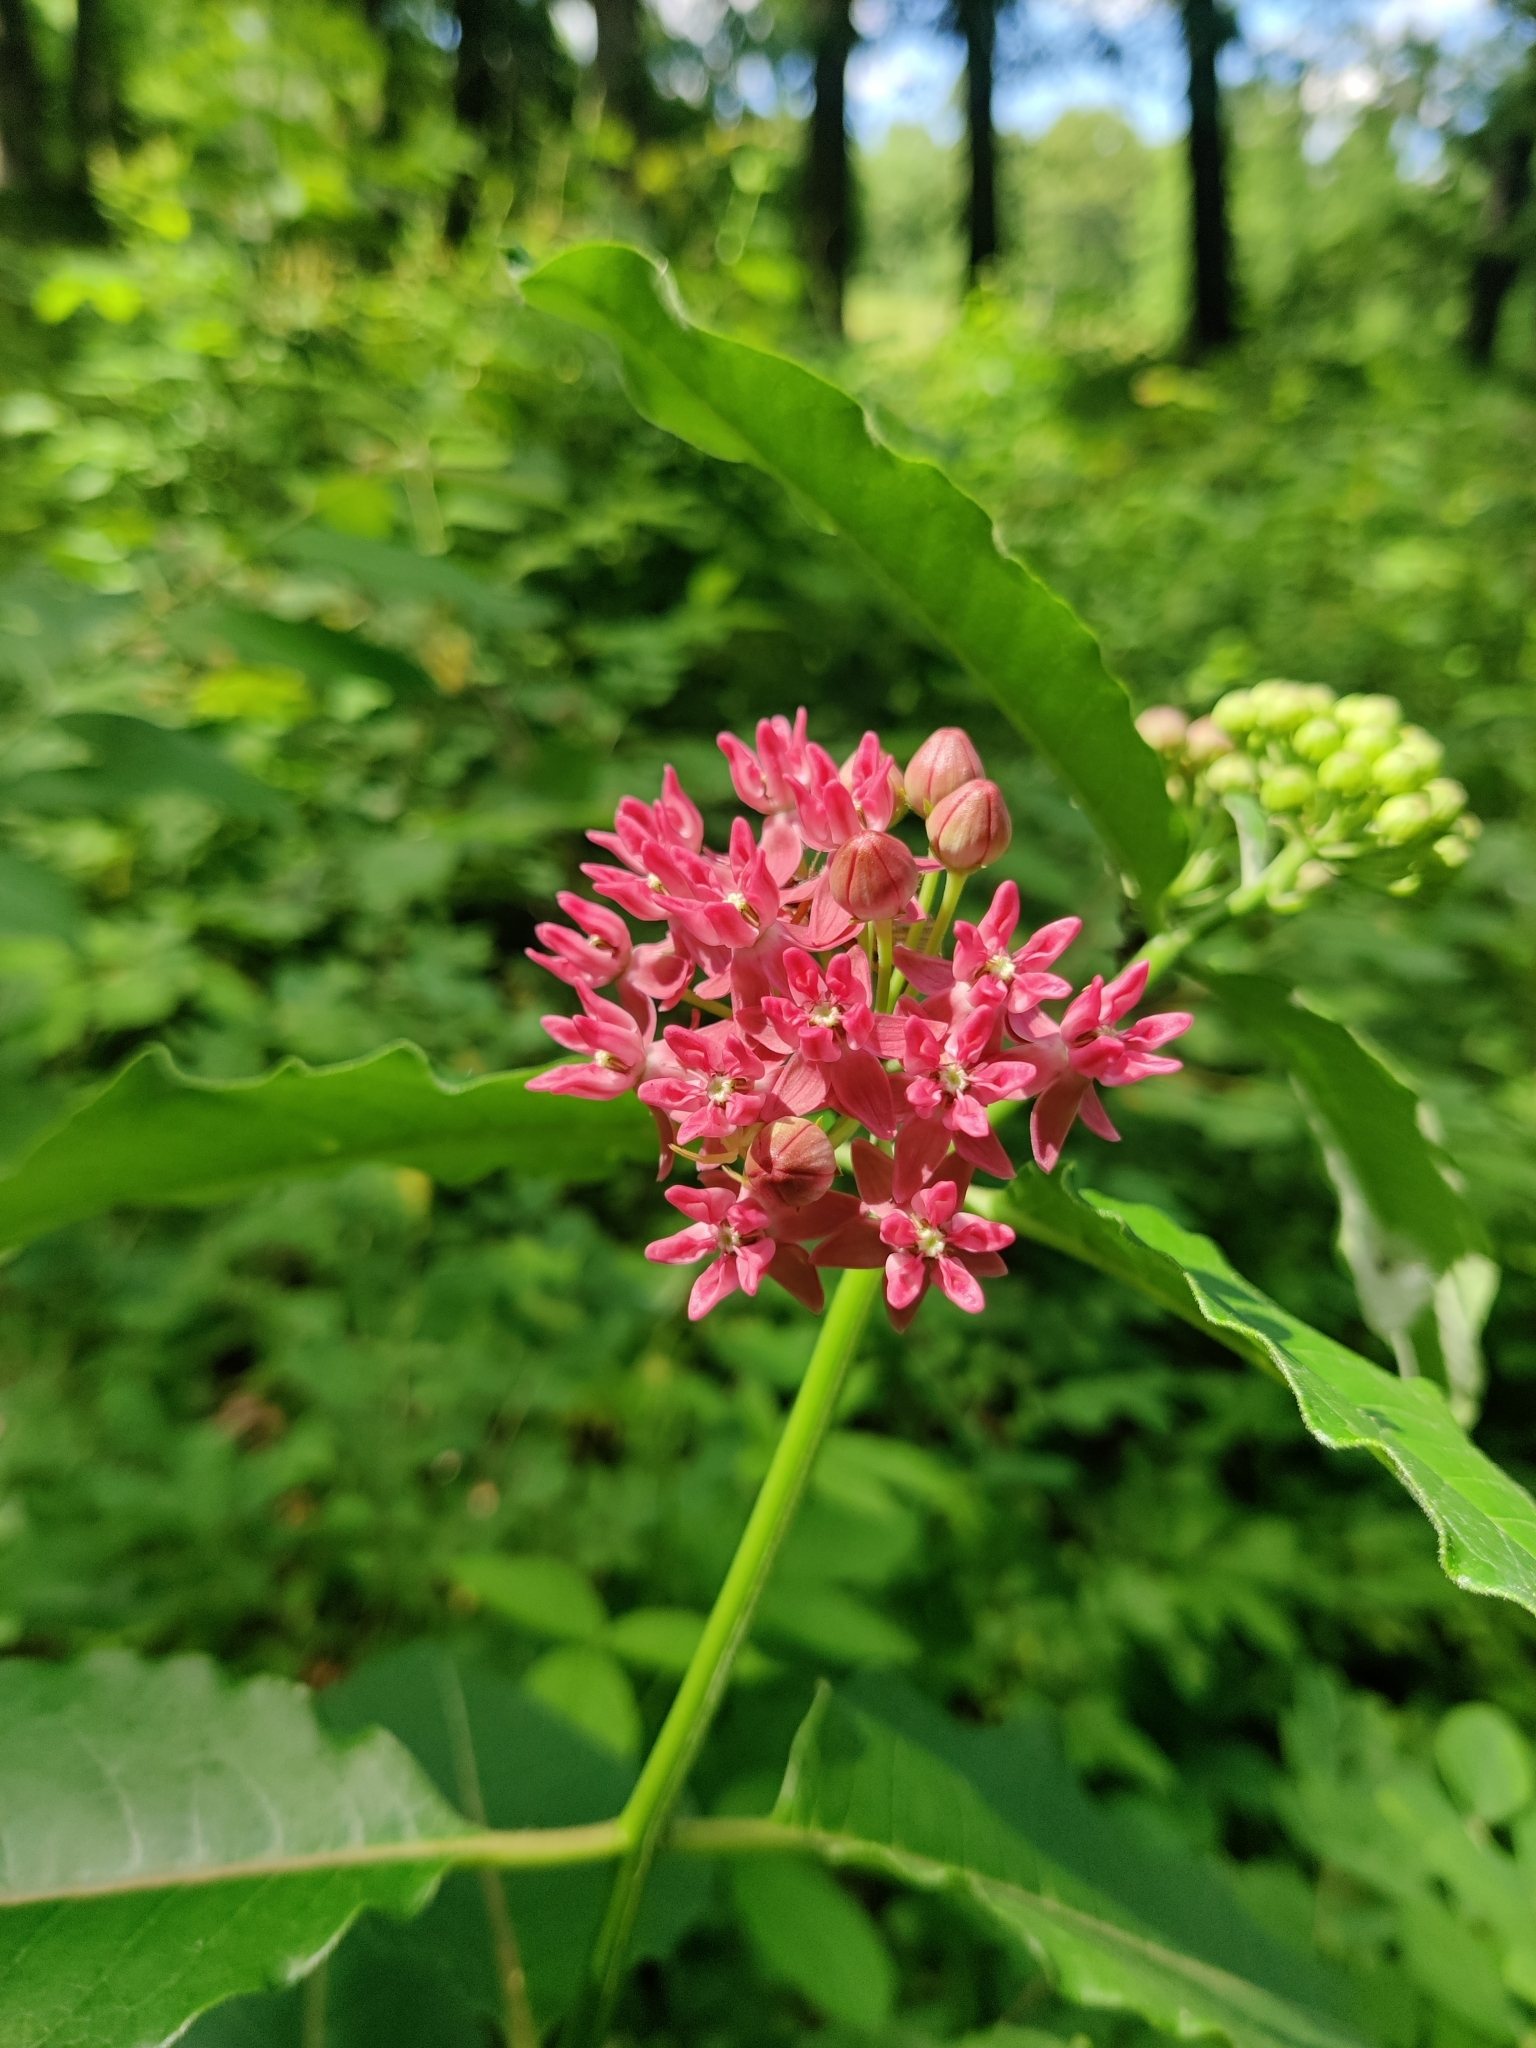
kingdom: Plantae
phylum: Tracheophyta
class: Magnoliopsida
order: Gentianales
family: Apocynaceae
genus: Asclepias
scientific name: Asclepias purpurascens
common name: Purple milkweed
